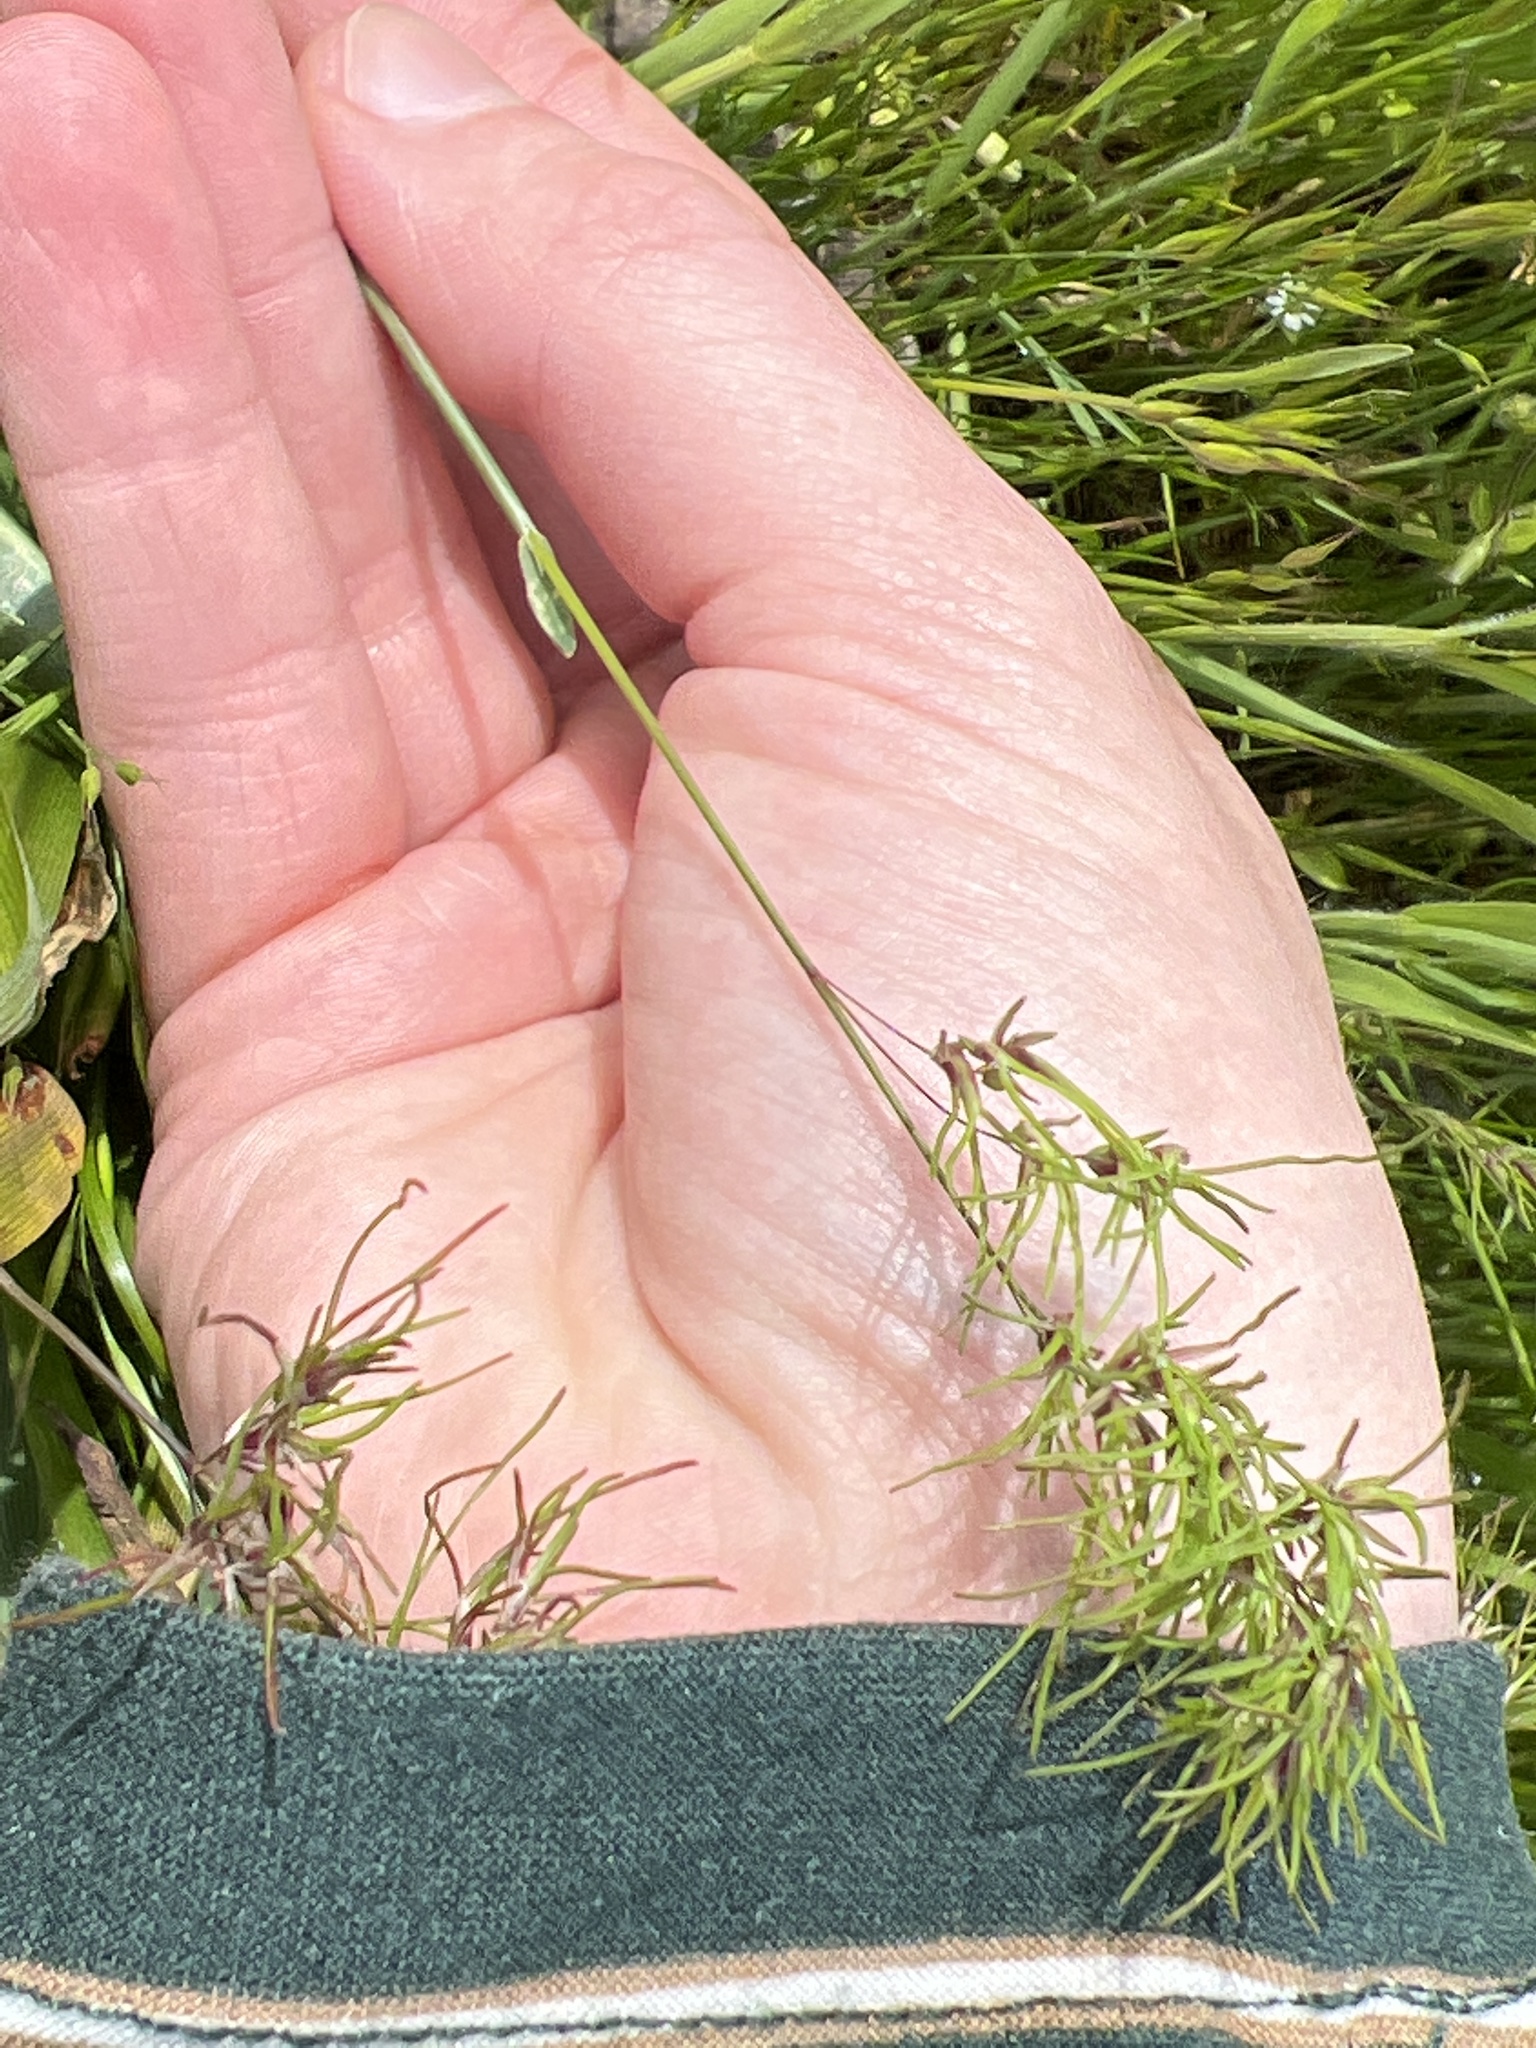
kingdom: Plantae
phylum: Tracheophyta
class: Liliopsida
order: Poales
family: Poaceae
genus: Poa
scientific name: Poa bulbosa
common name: Bulbous bluegrass
